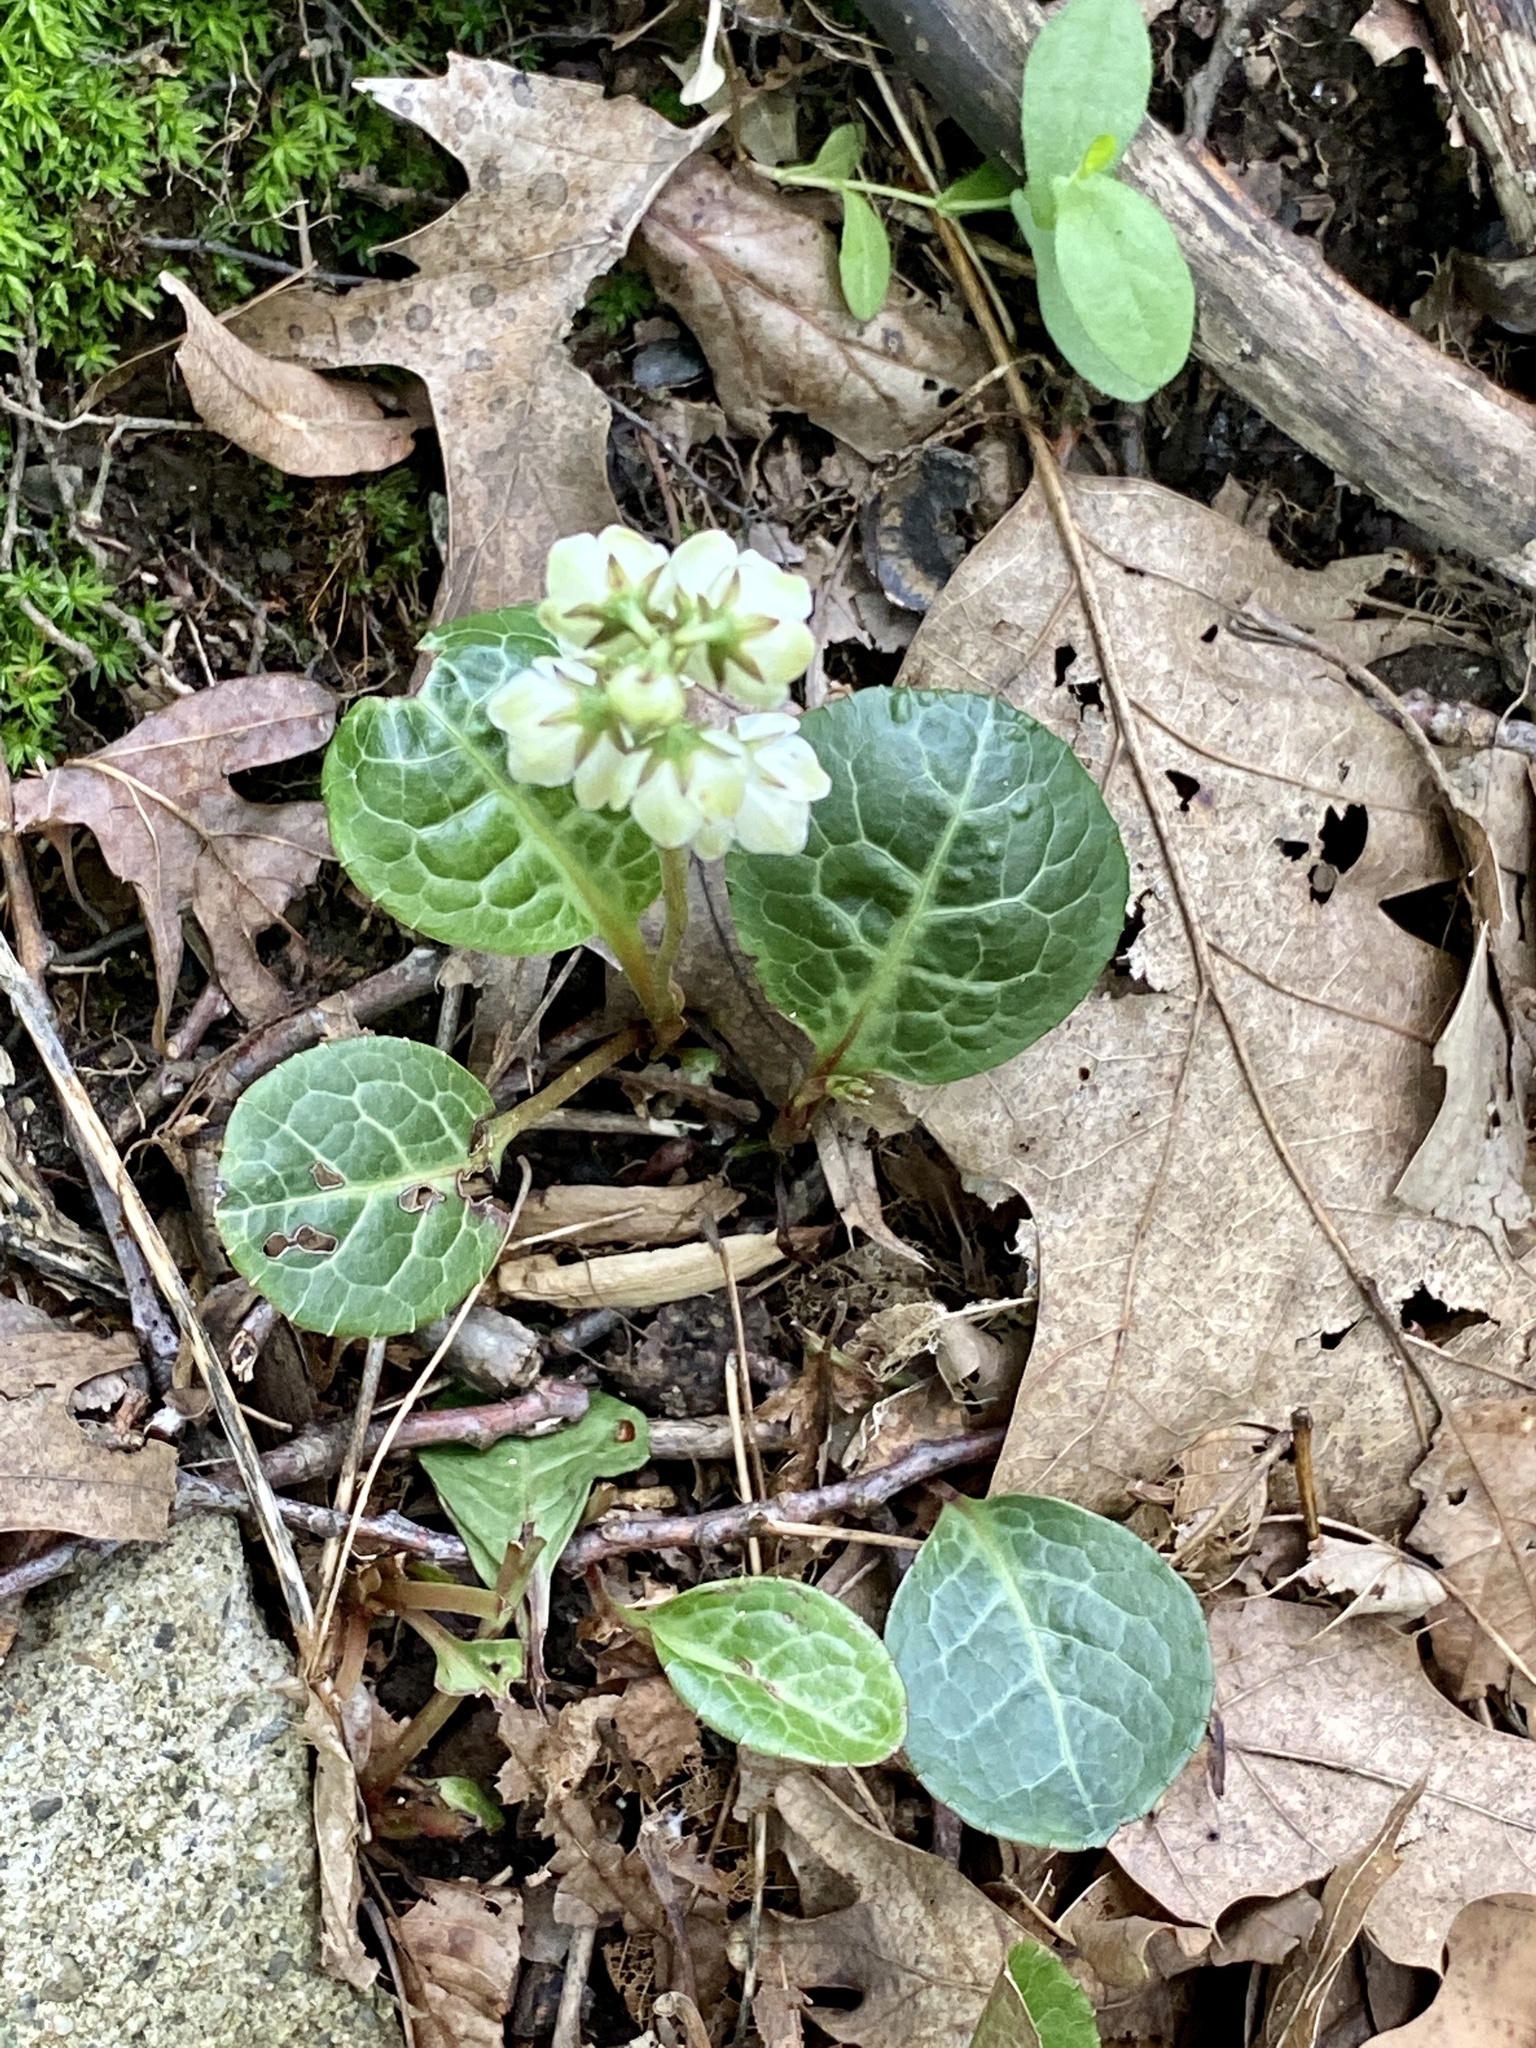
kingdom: Plantae
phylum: Tracheophyta
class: Magnoliopsida
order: Ericales
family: Ericaceae
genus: Pyrola
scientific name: Pyrola americana
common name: American wintergreen
